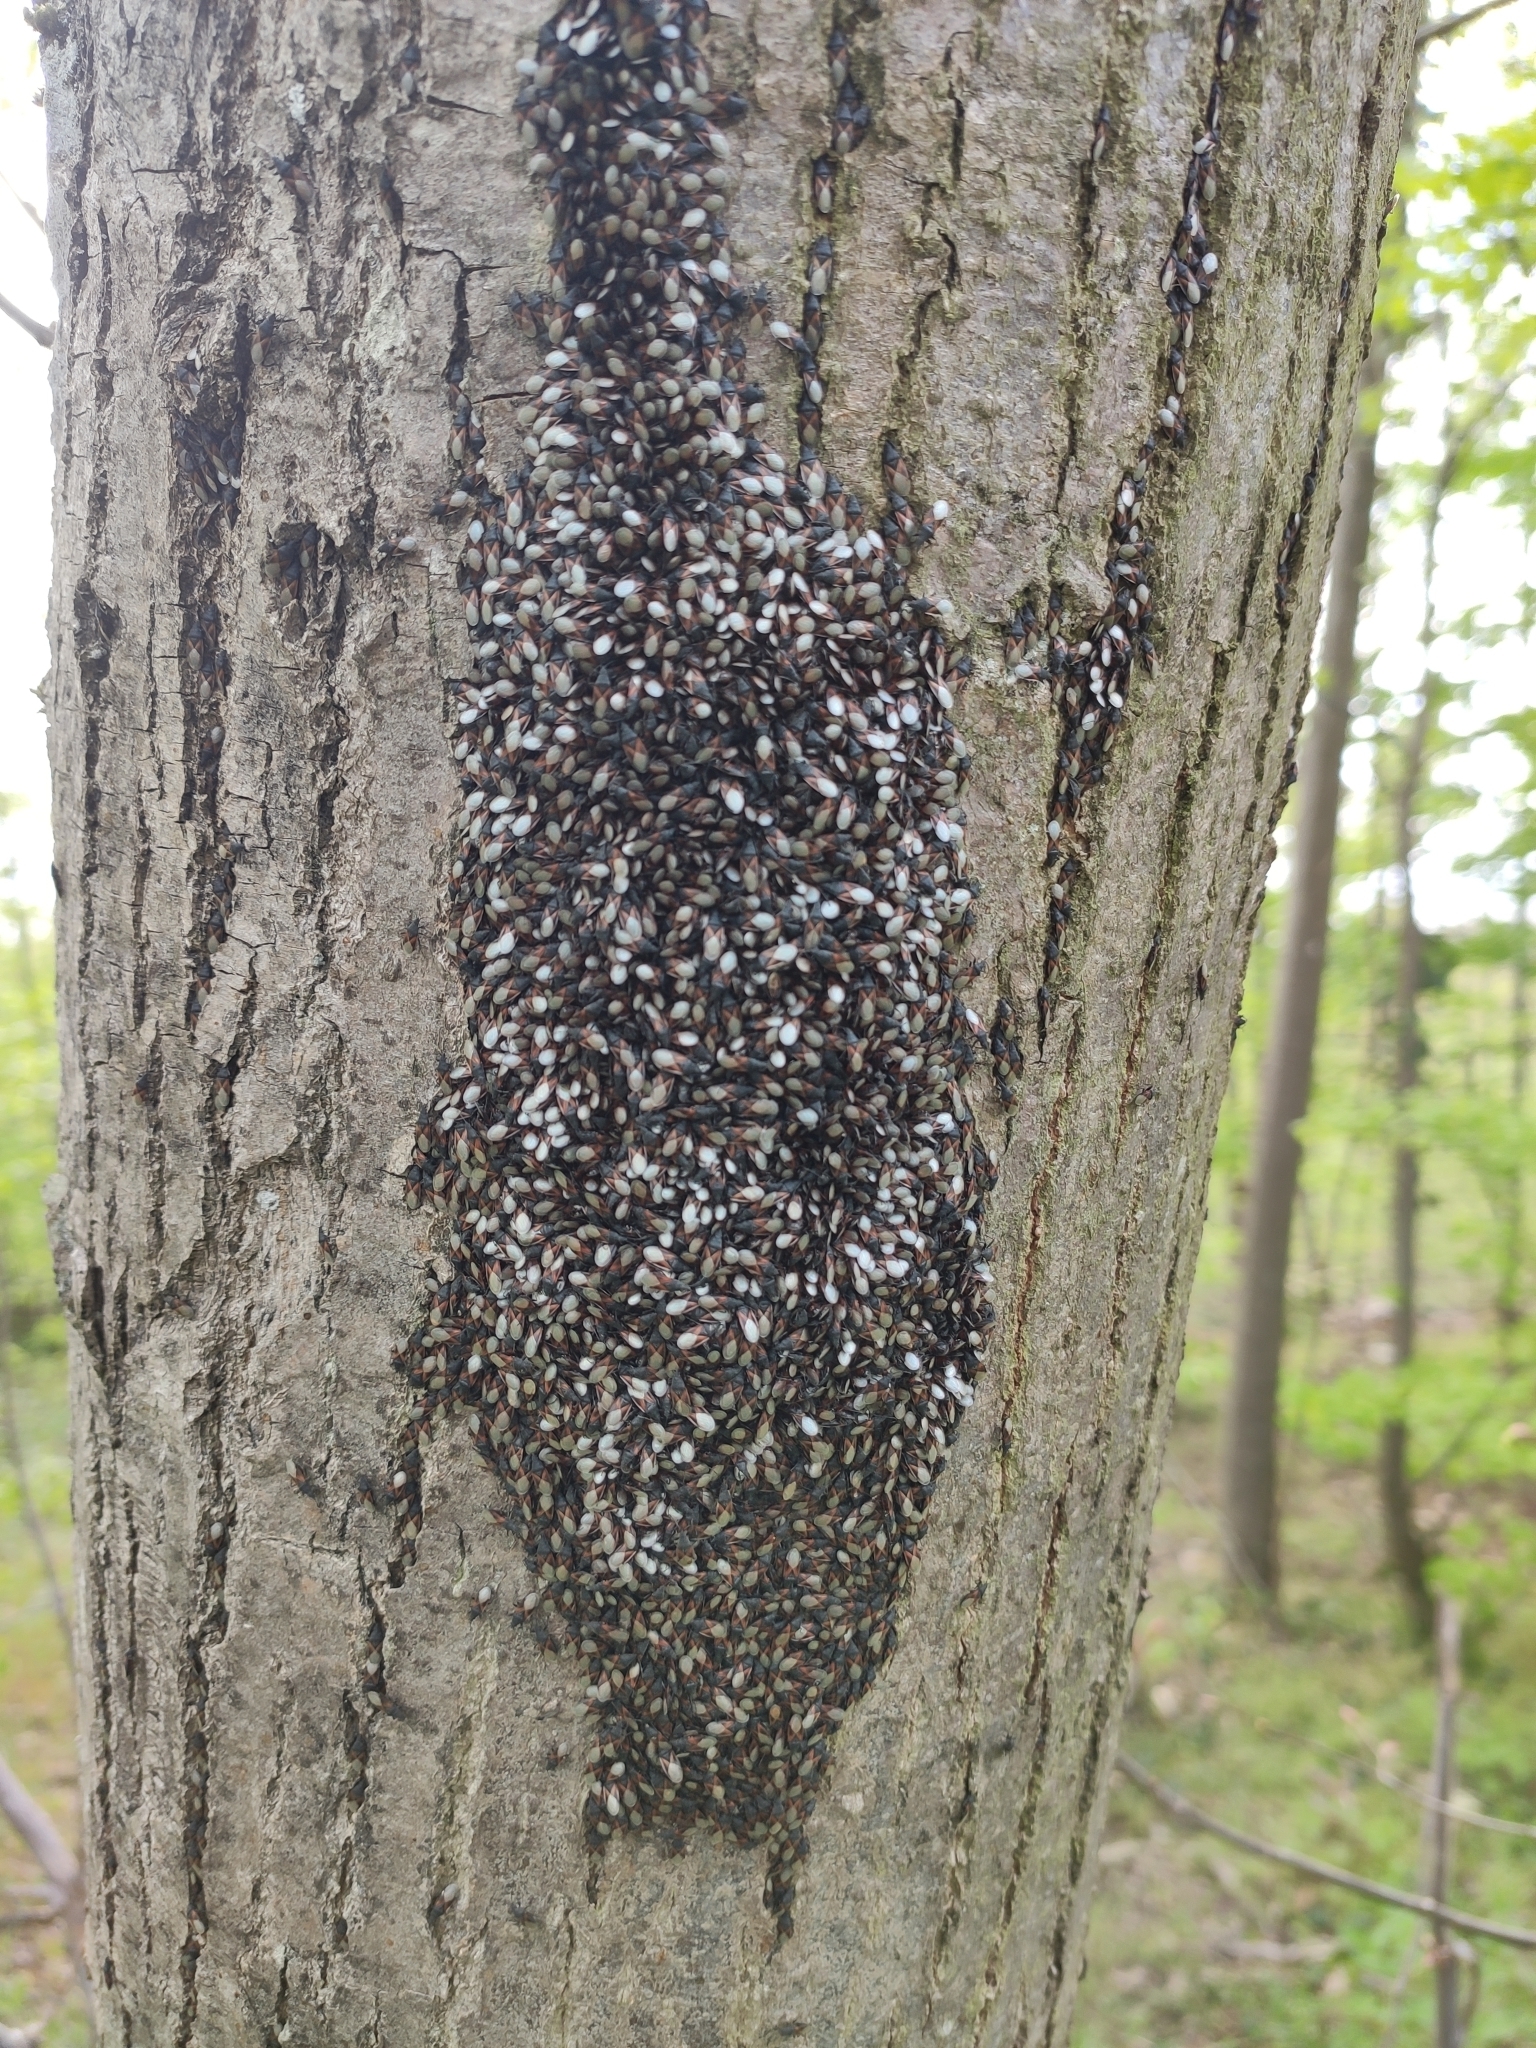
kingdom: Animalia
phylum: Arthropoda
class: Insecta
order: Hemiptera
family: Oxycarenidae
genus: Oxycarenus
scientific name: Oxycarenus lavaterae
